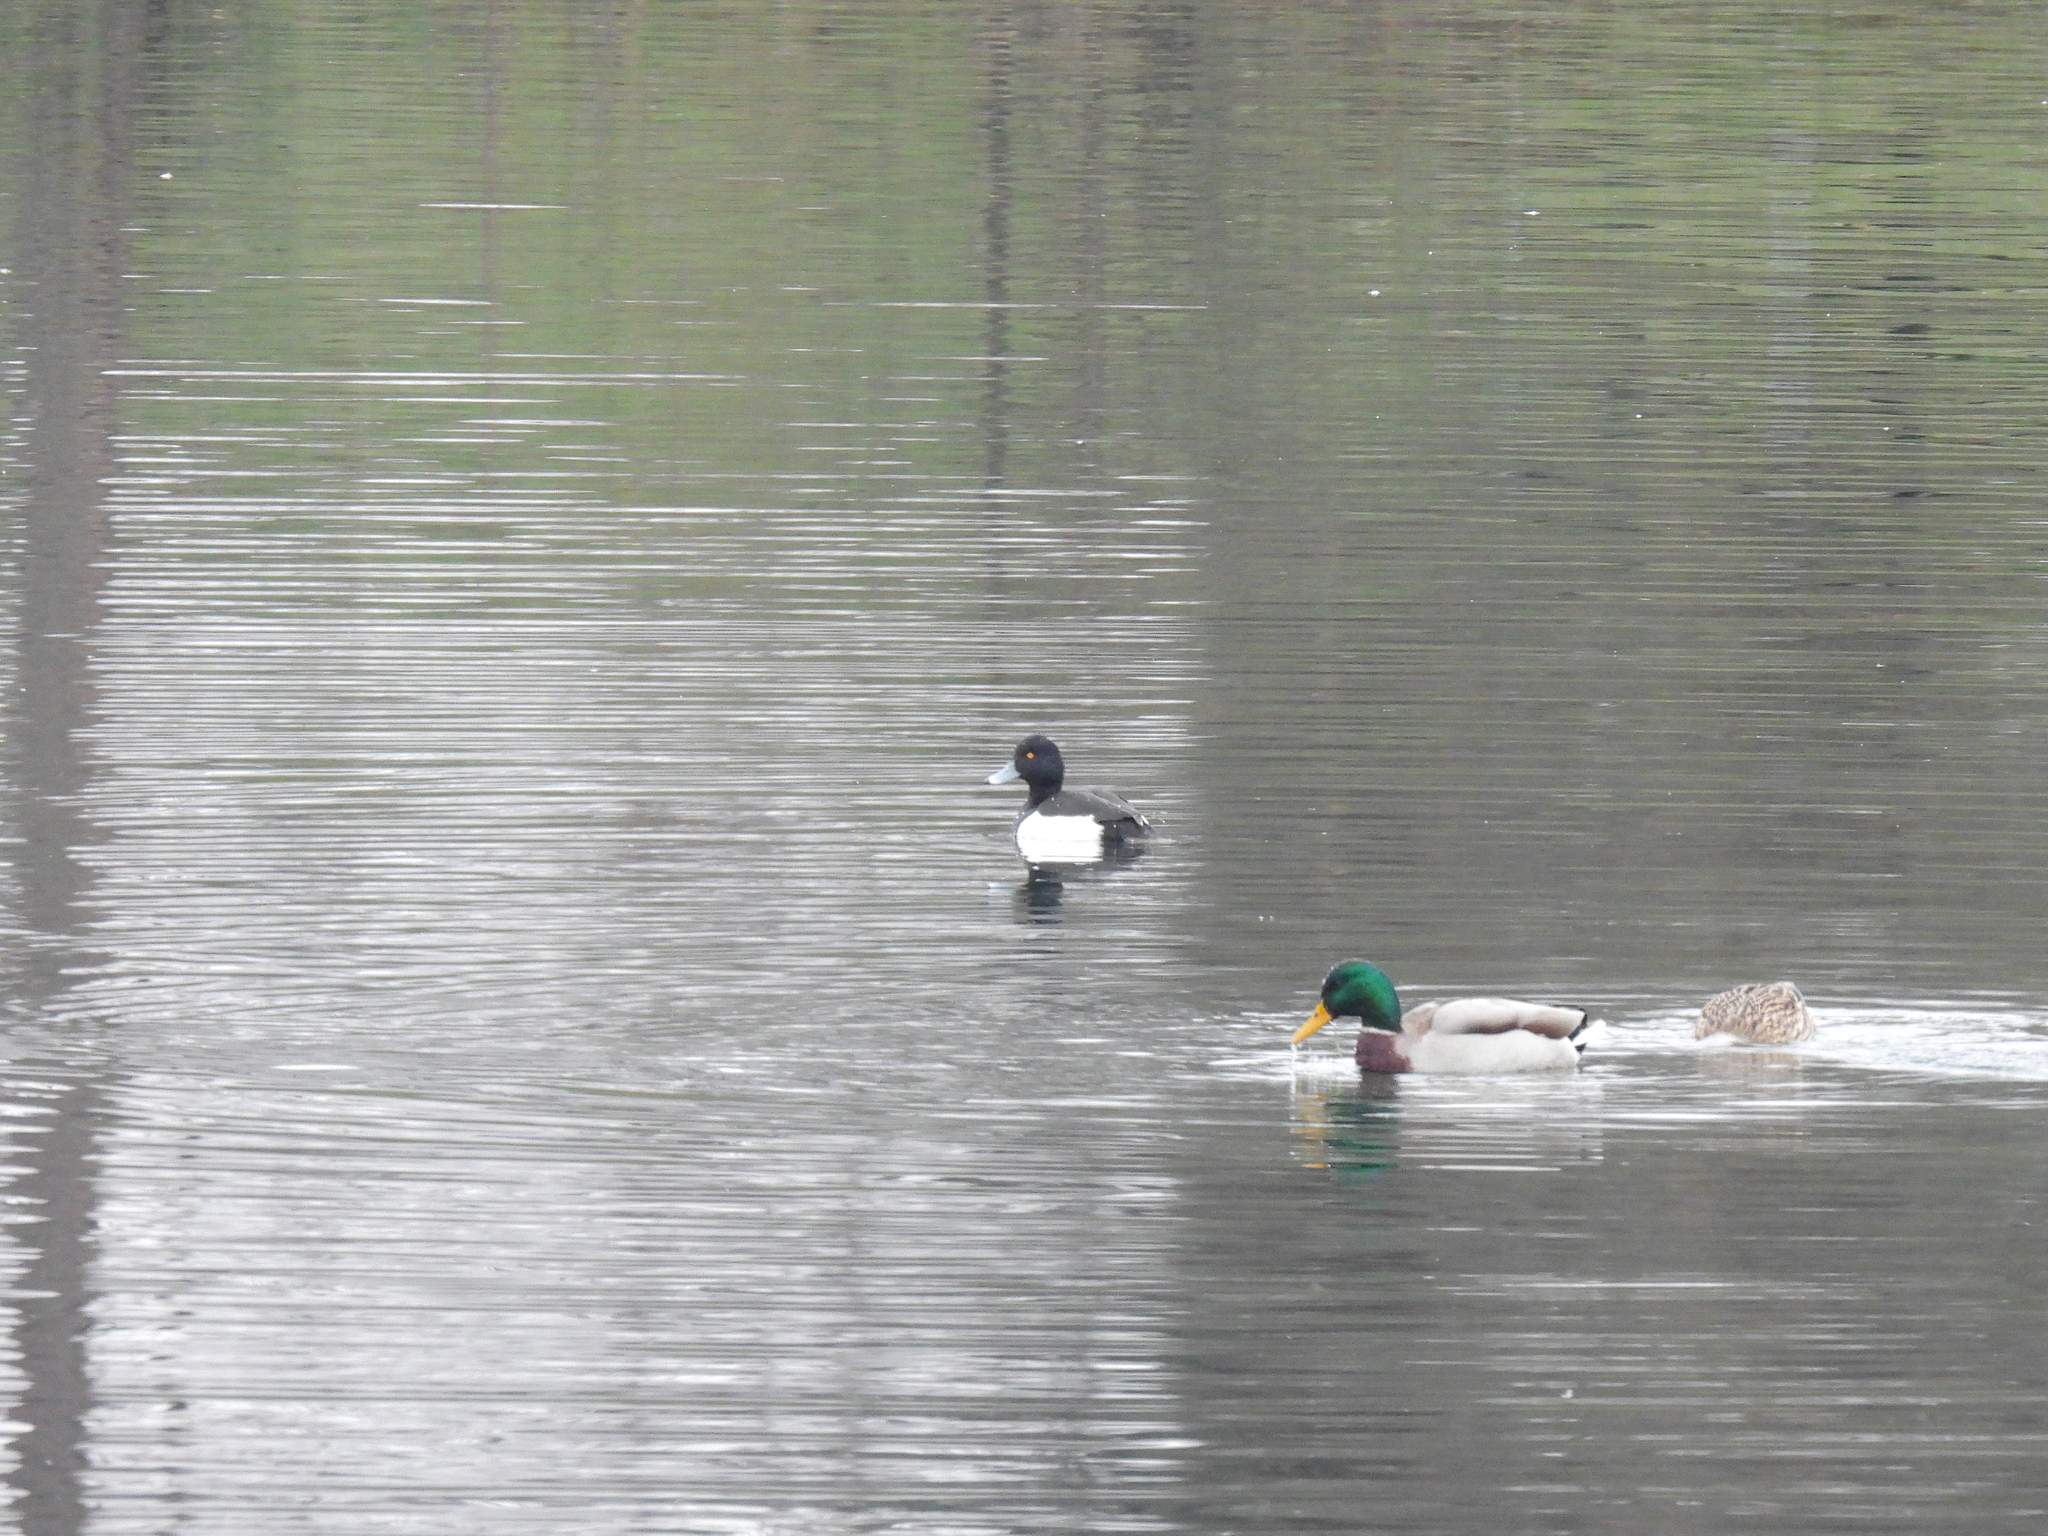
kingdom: Animalia
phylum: Chordata
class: Aves
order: Anseriformes
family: Anatidae
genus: Aythya
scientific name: Aythya fuligula
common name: Tufted duck
